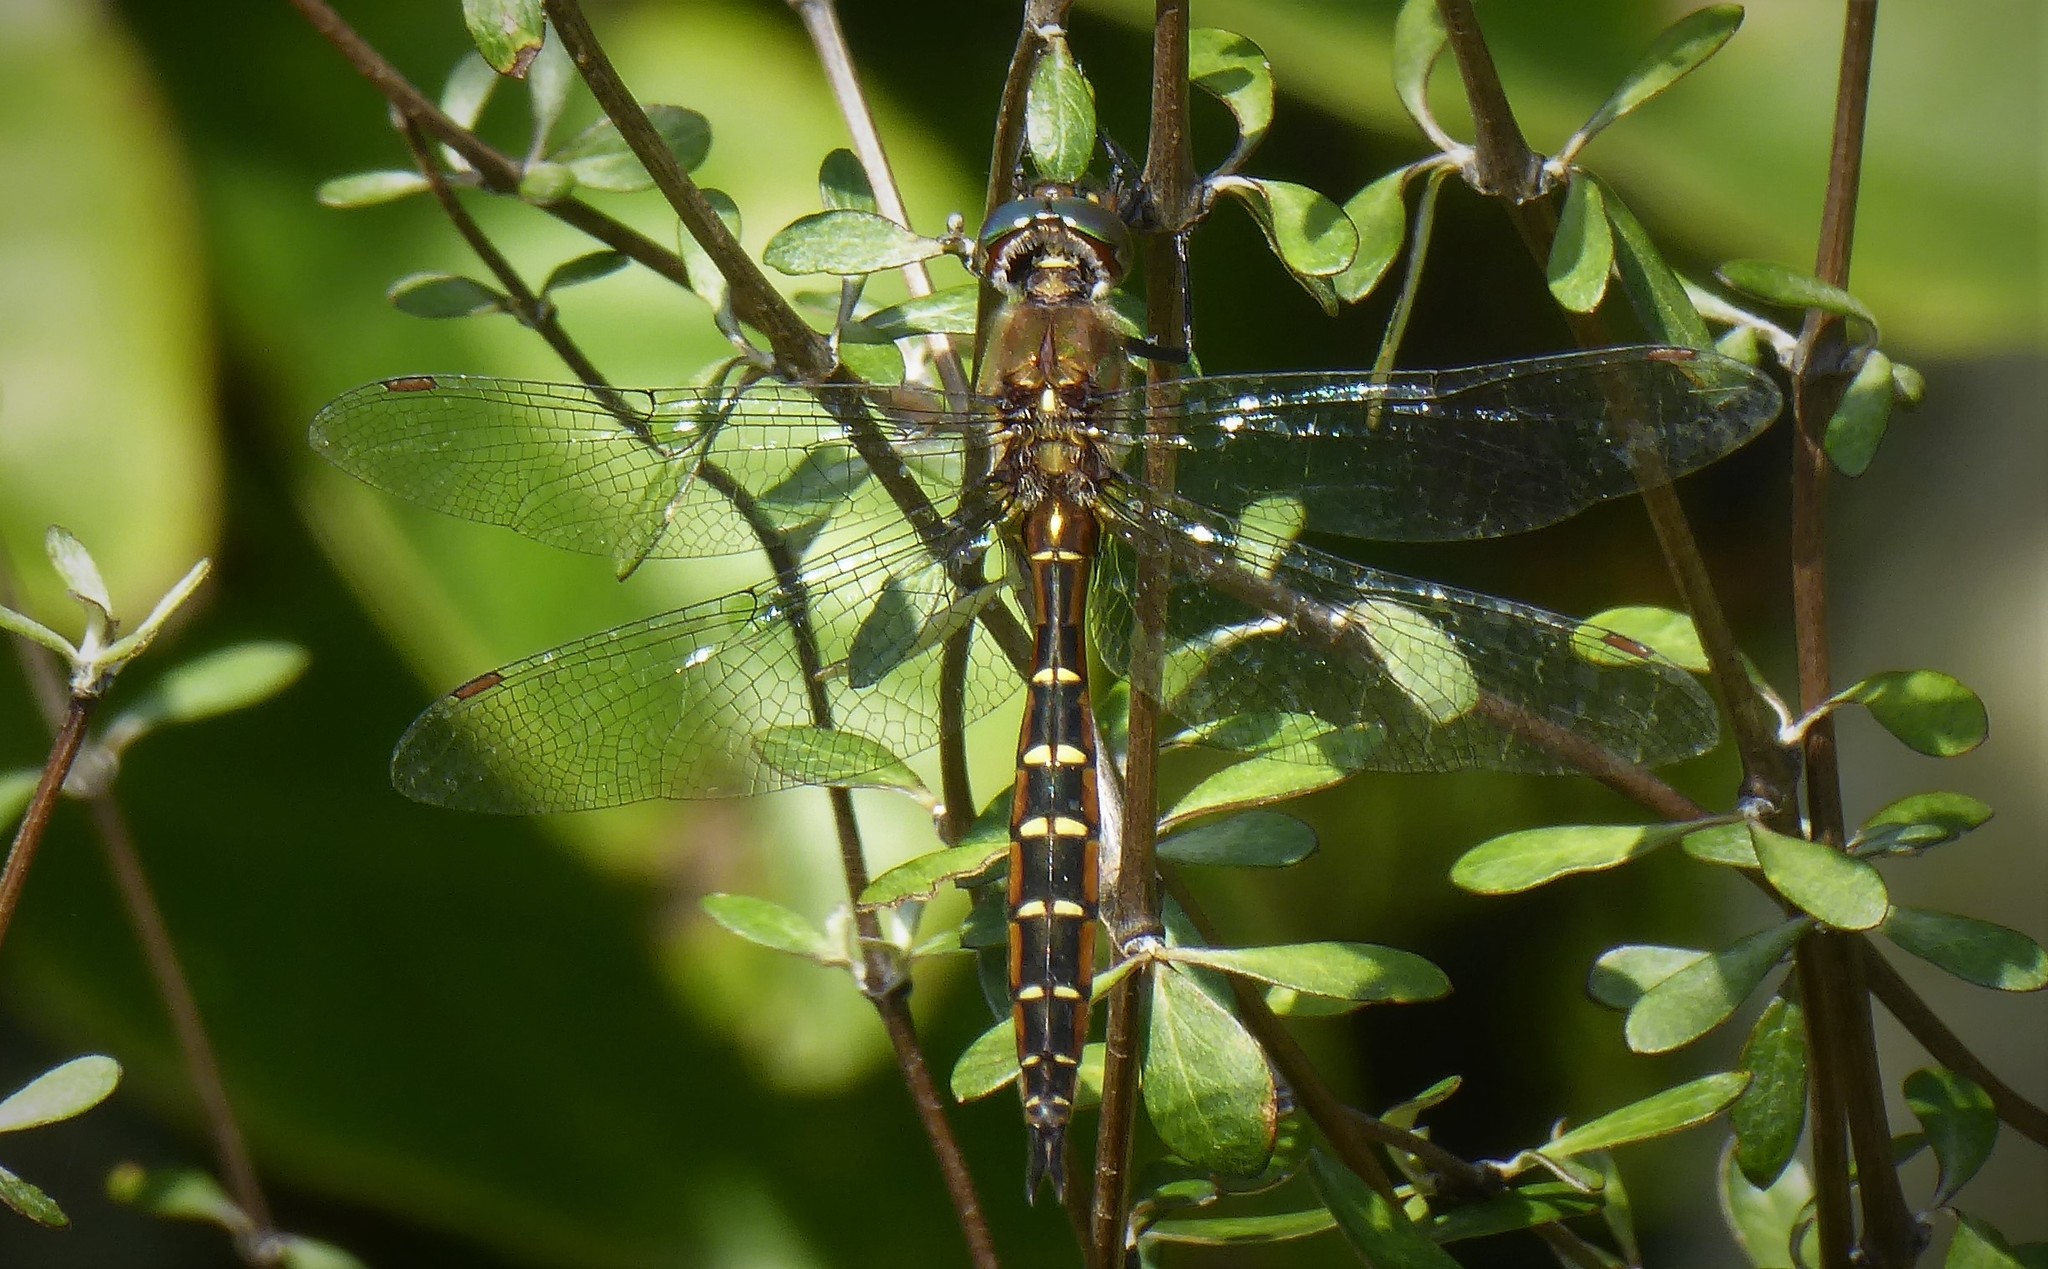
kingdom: Animalia
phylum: Arthropoda
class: Insecta
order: Odonata
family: Corduliidae
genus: Procordulia
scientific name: Procordulia smithii
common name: Ranger dragonfly
